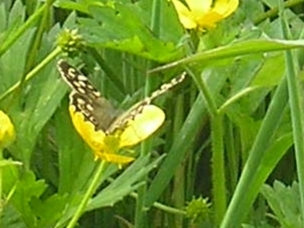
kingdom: Animalia
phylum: Arthropoda
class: Insecta
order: Lepidoptera
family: Nymphalidae
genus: Pararge
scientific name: Pararge aegeria
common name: Speckled wood
